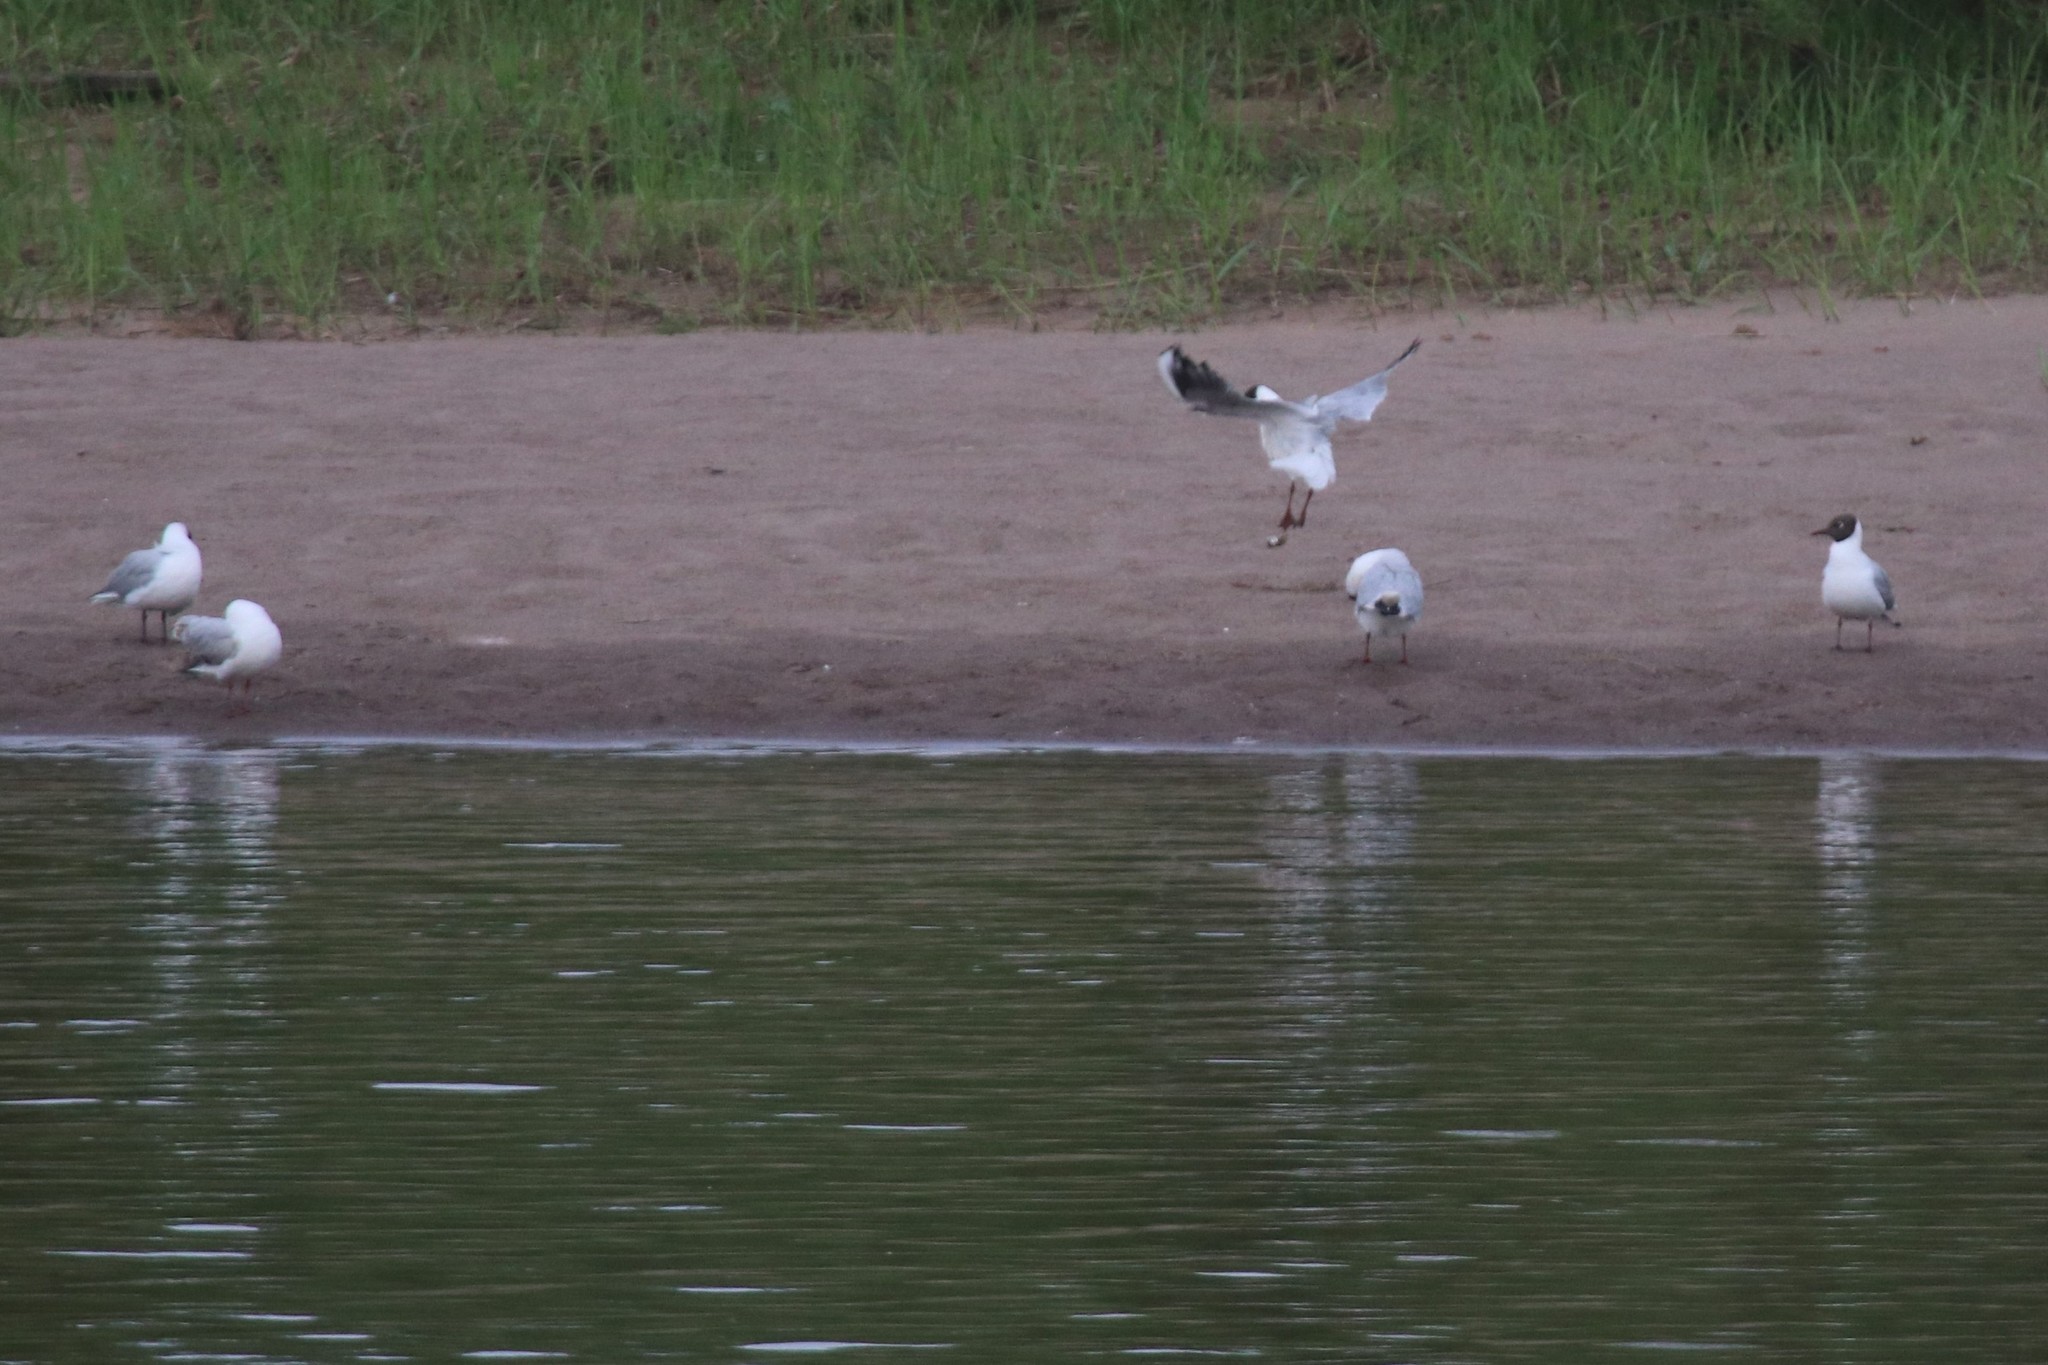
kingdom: Animalia
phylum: Chordata
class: Aves
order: Charadriiformes
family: Laridae
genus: Chroicocephalus
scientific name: Chroicocephalus ridibundus
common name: Black-headed gull
